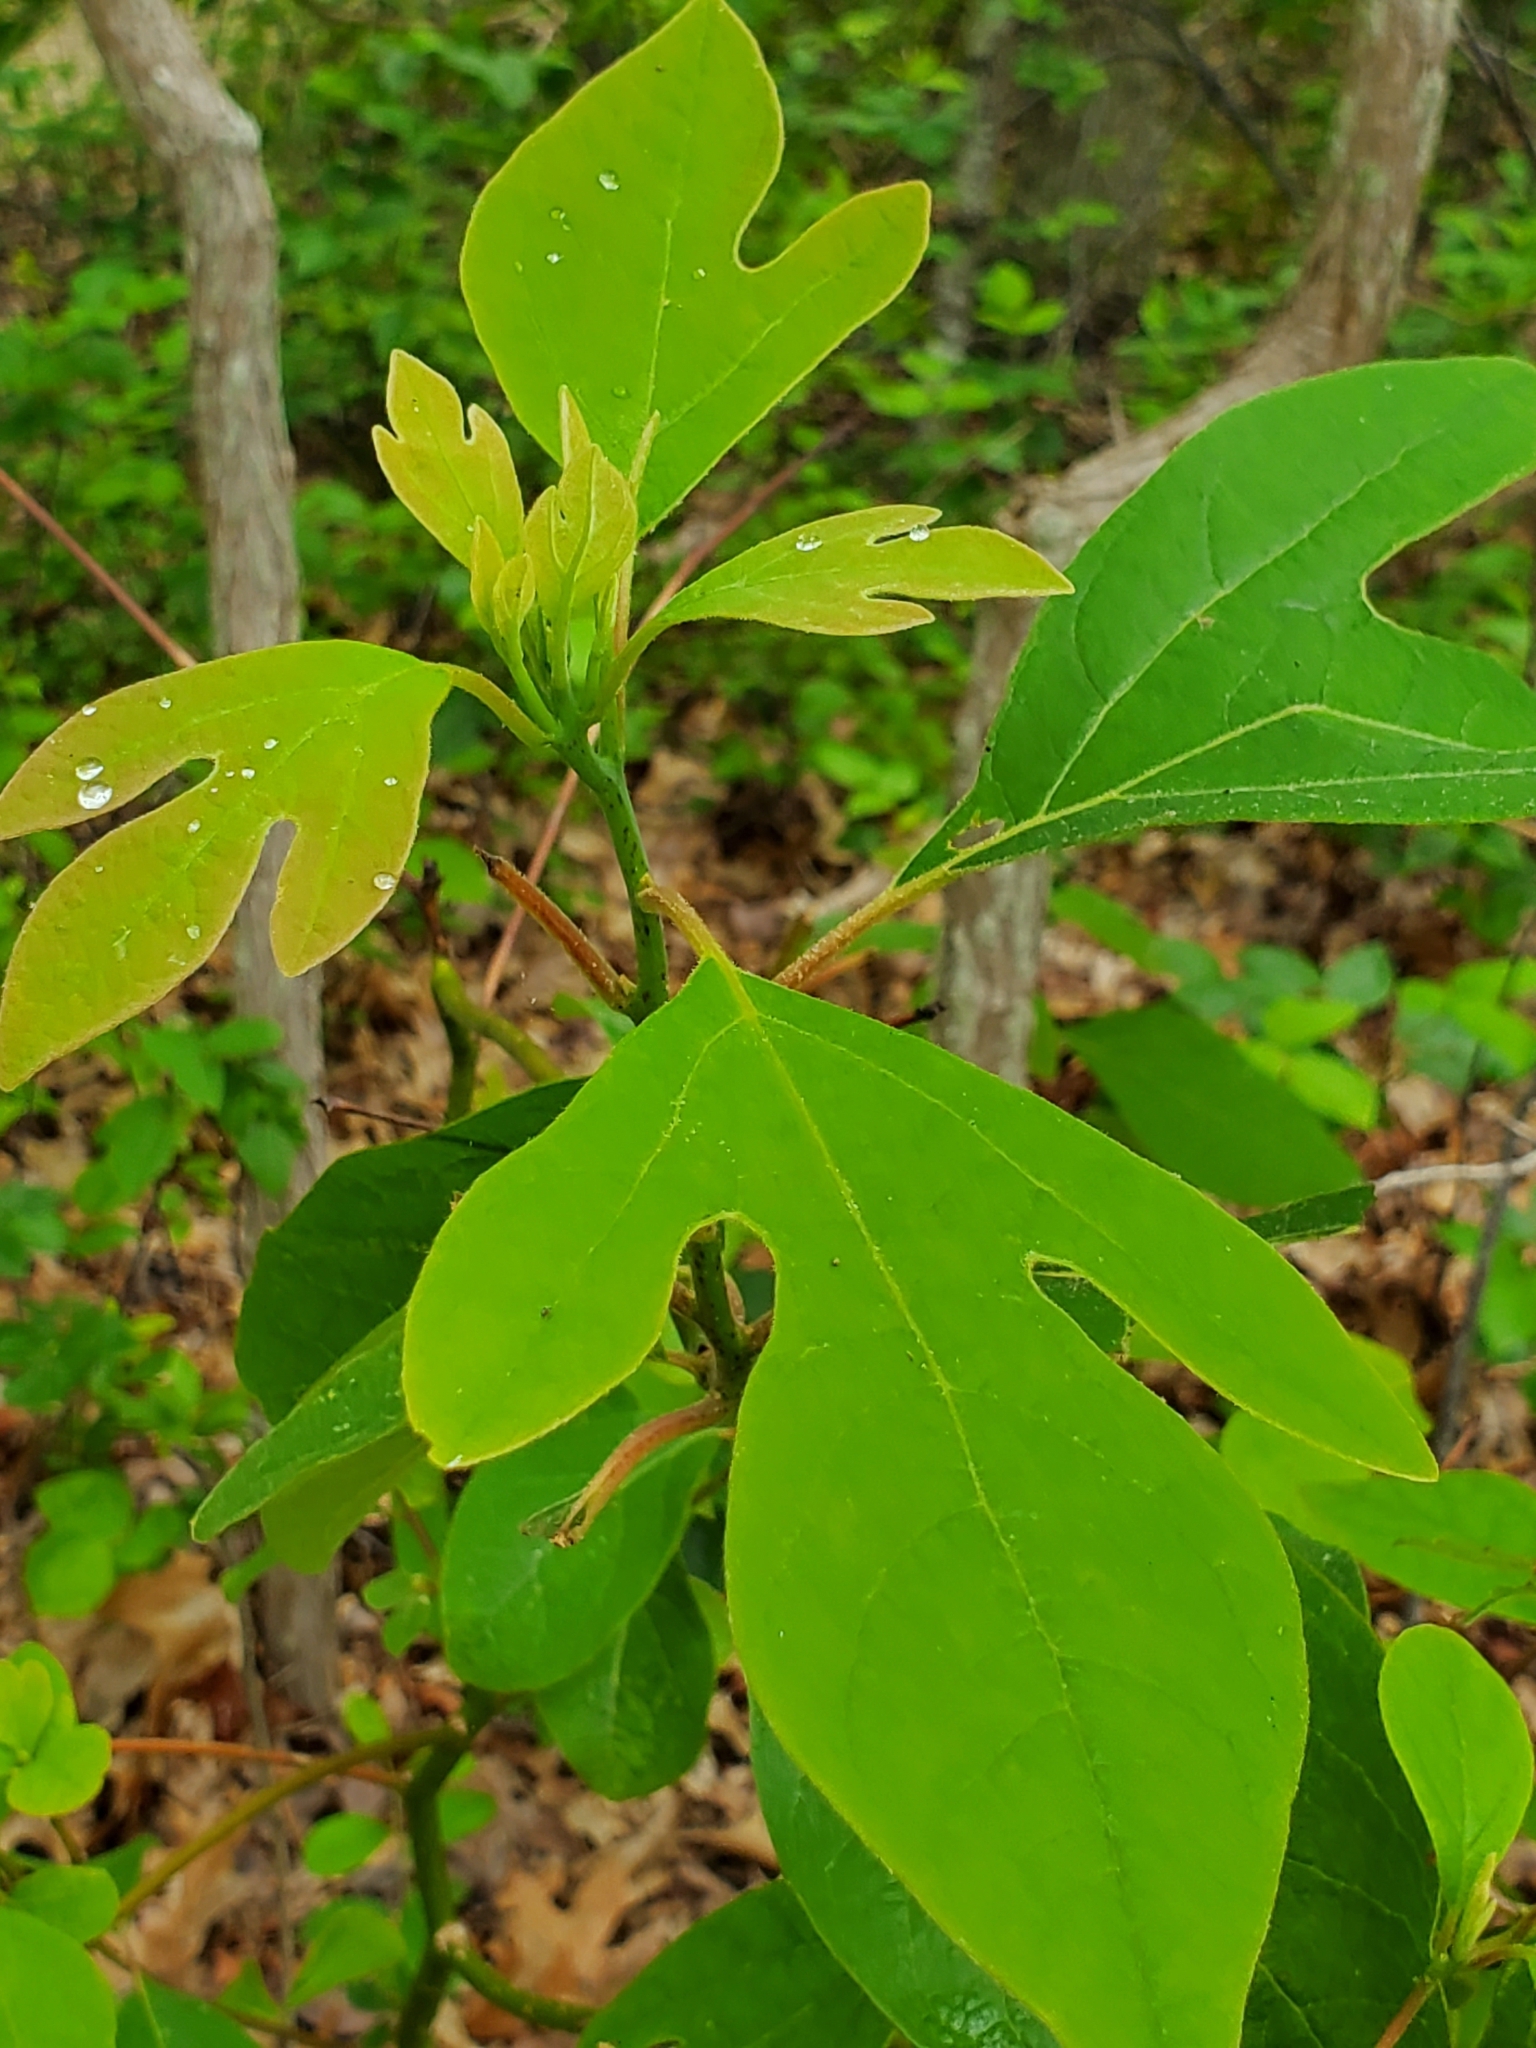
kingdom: Plantae
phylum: Tracheophyta
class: Magnoliopsida
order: Laurales
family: Lauraceae
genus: Sassafras
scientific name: Sassafras albidum
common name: Sassafras
